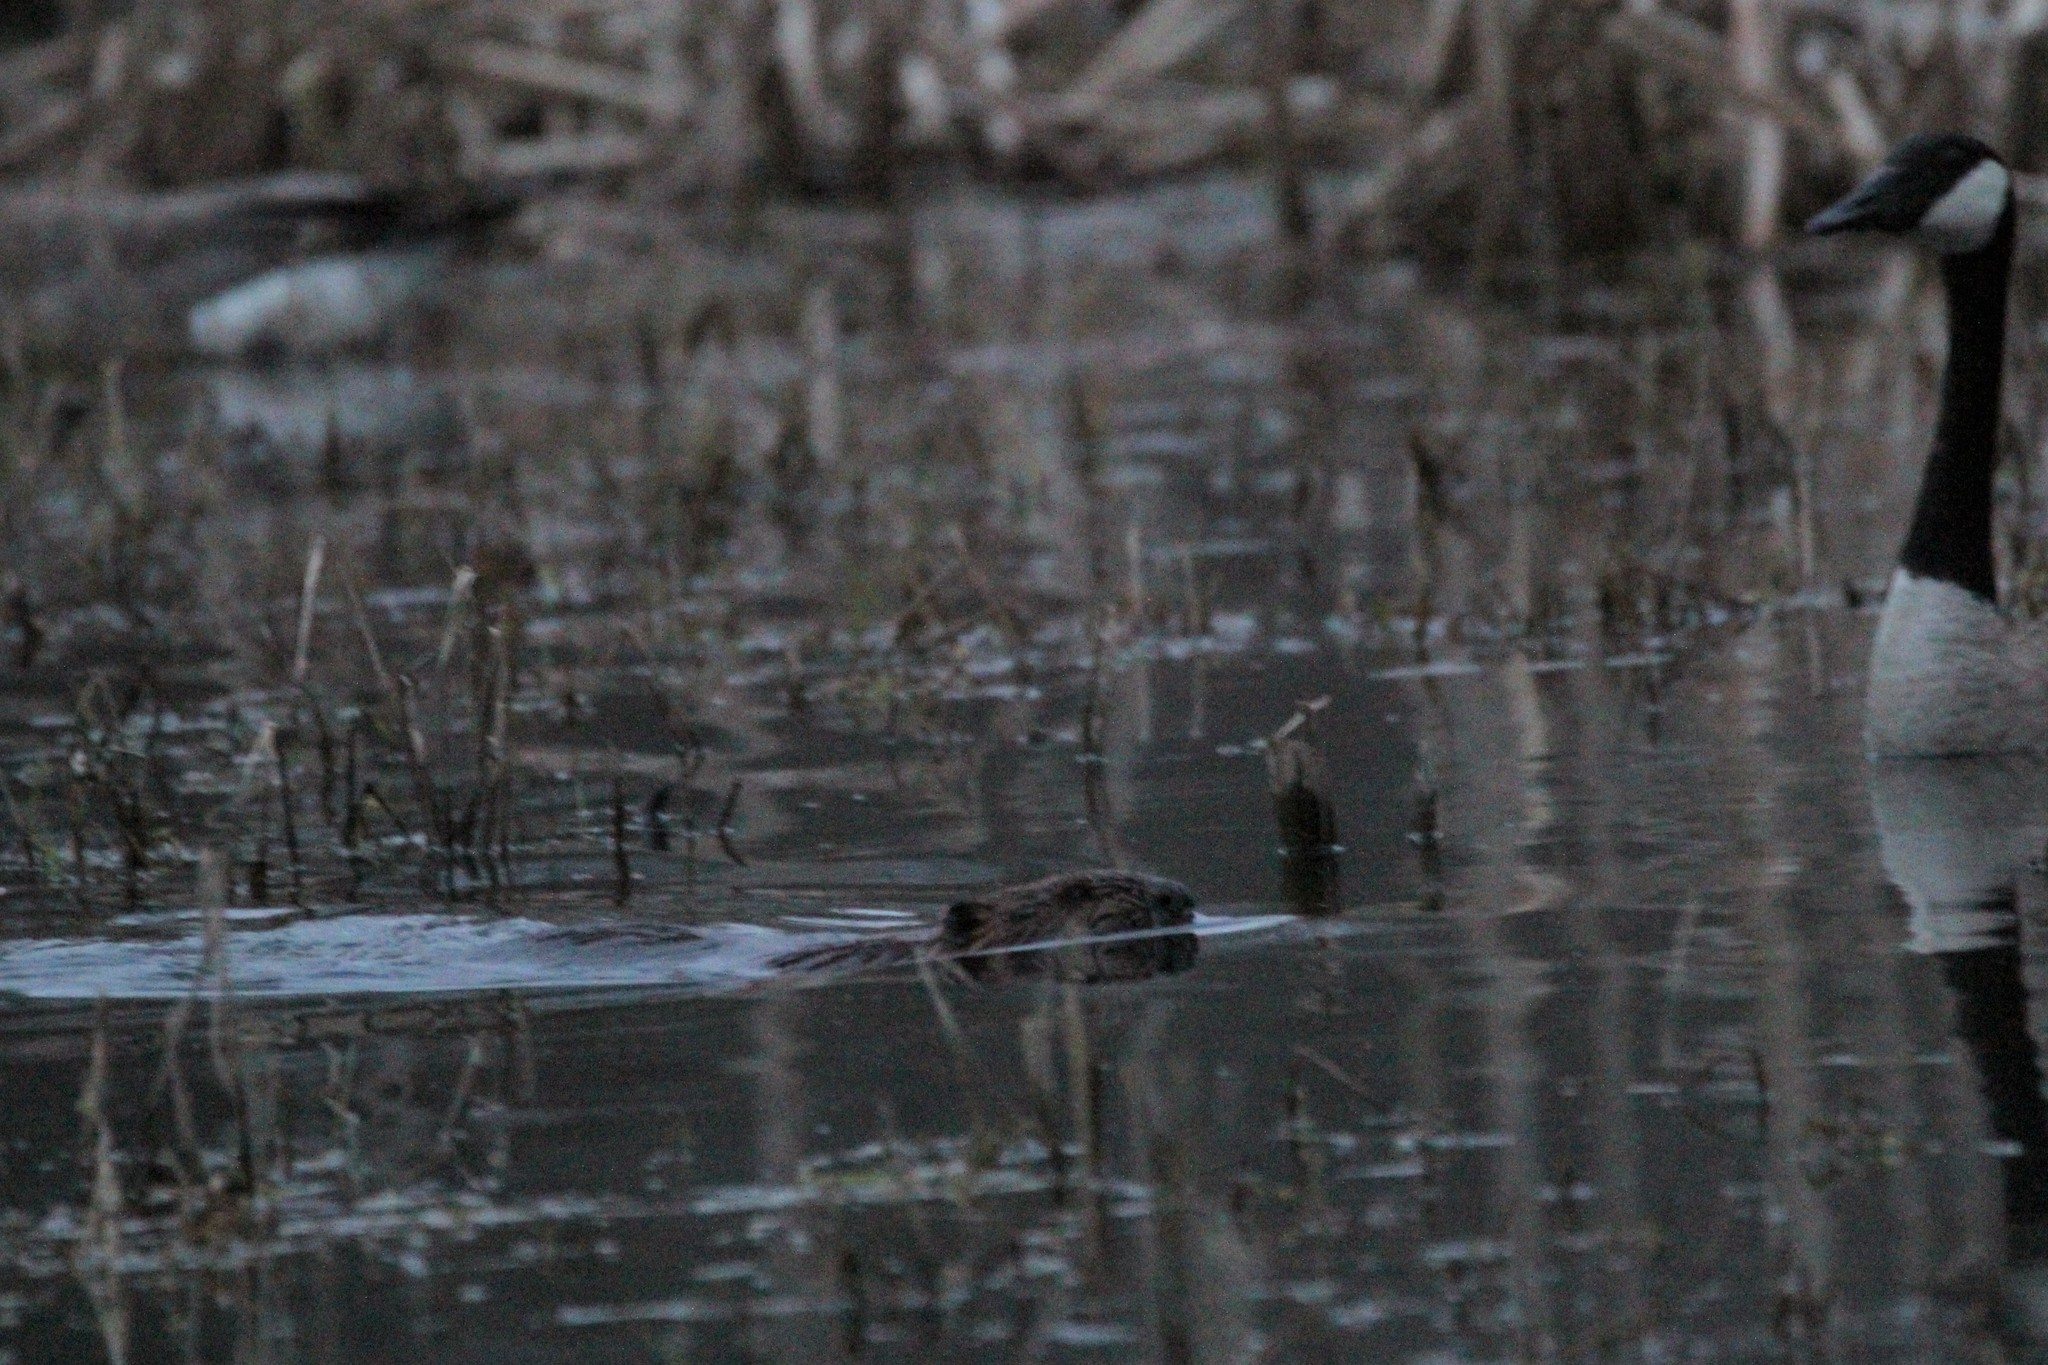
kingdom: Animalia
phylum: Chordata
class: Mammalia
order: Rodentia
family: Castoridae
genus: Castor
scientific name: Castor canadensis
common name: American beaver
